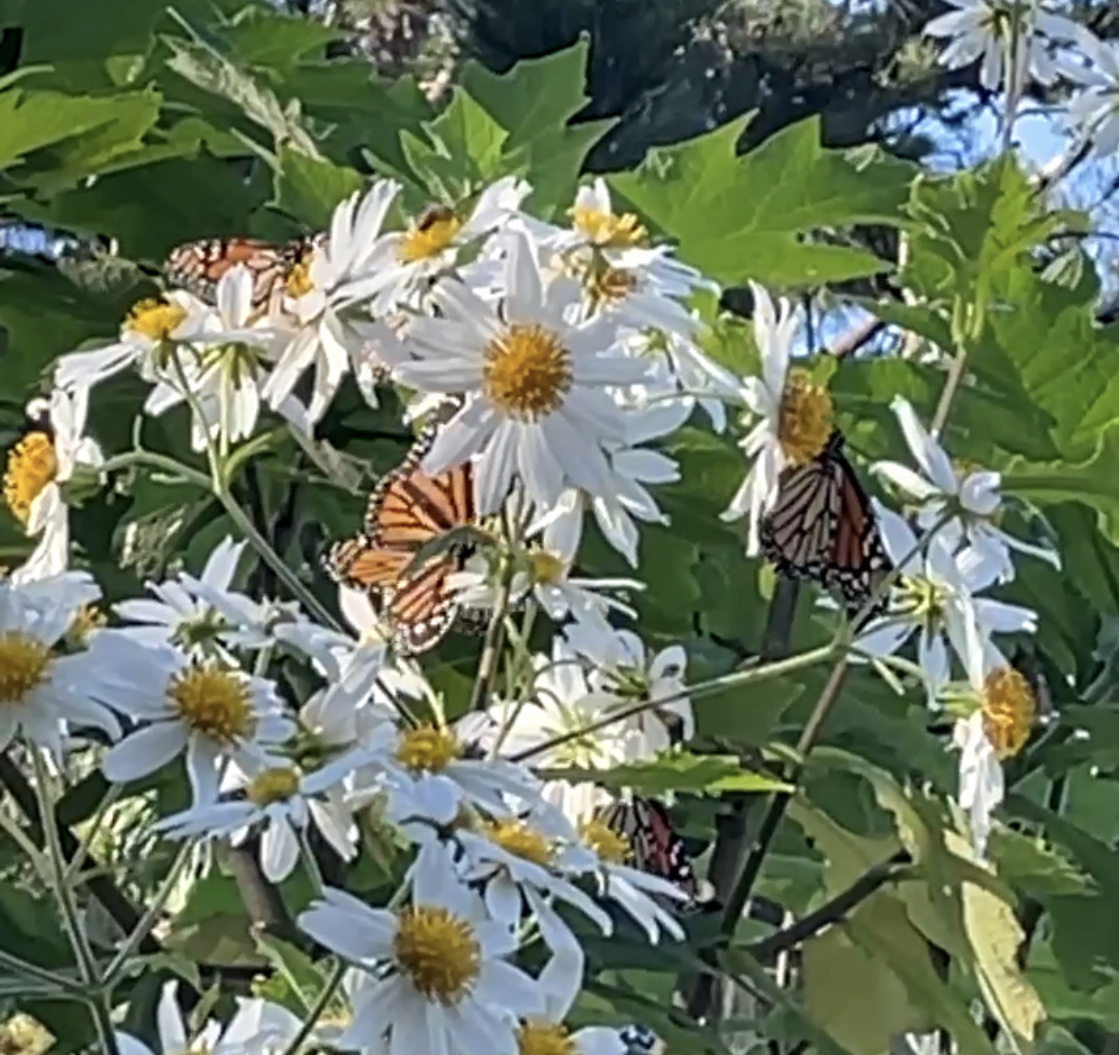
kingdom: Animalia
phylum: Arthropoda
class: Insecta
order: Lepidoptera
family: Nymphalidae
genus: Danaus
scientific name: Danaus plexippus
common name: Monarch
